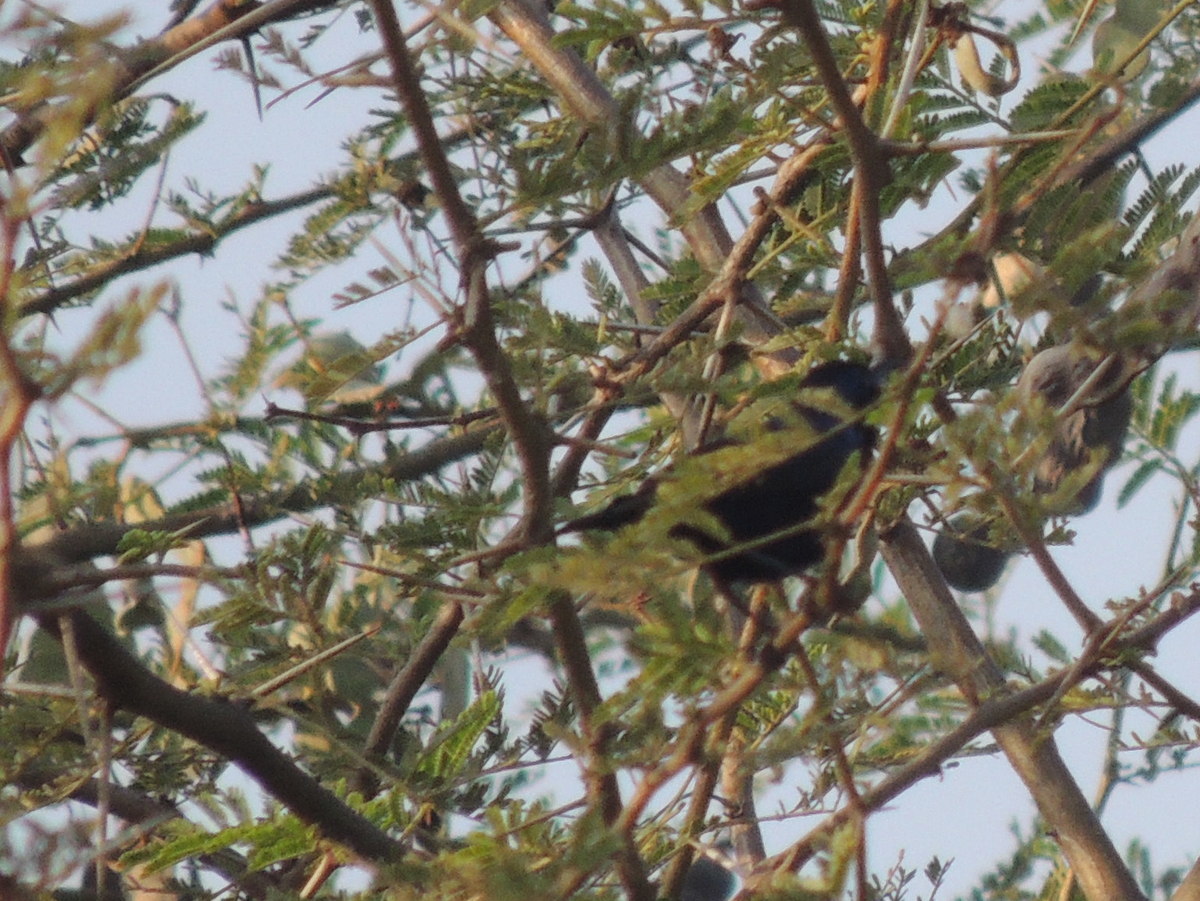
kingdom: Animalia
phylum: Chordata
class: Aves
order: Passeriformes
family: Nectariniidae
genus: Cinnyris
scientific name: Cinnyris asiaticus
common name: Purple sunbird
